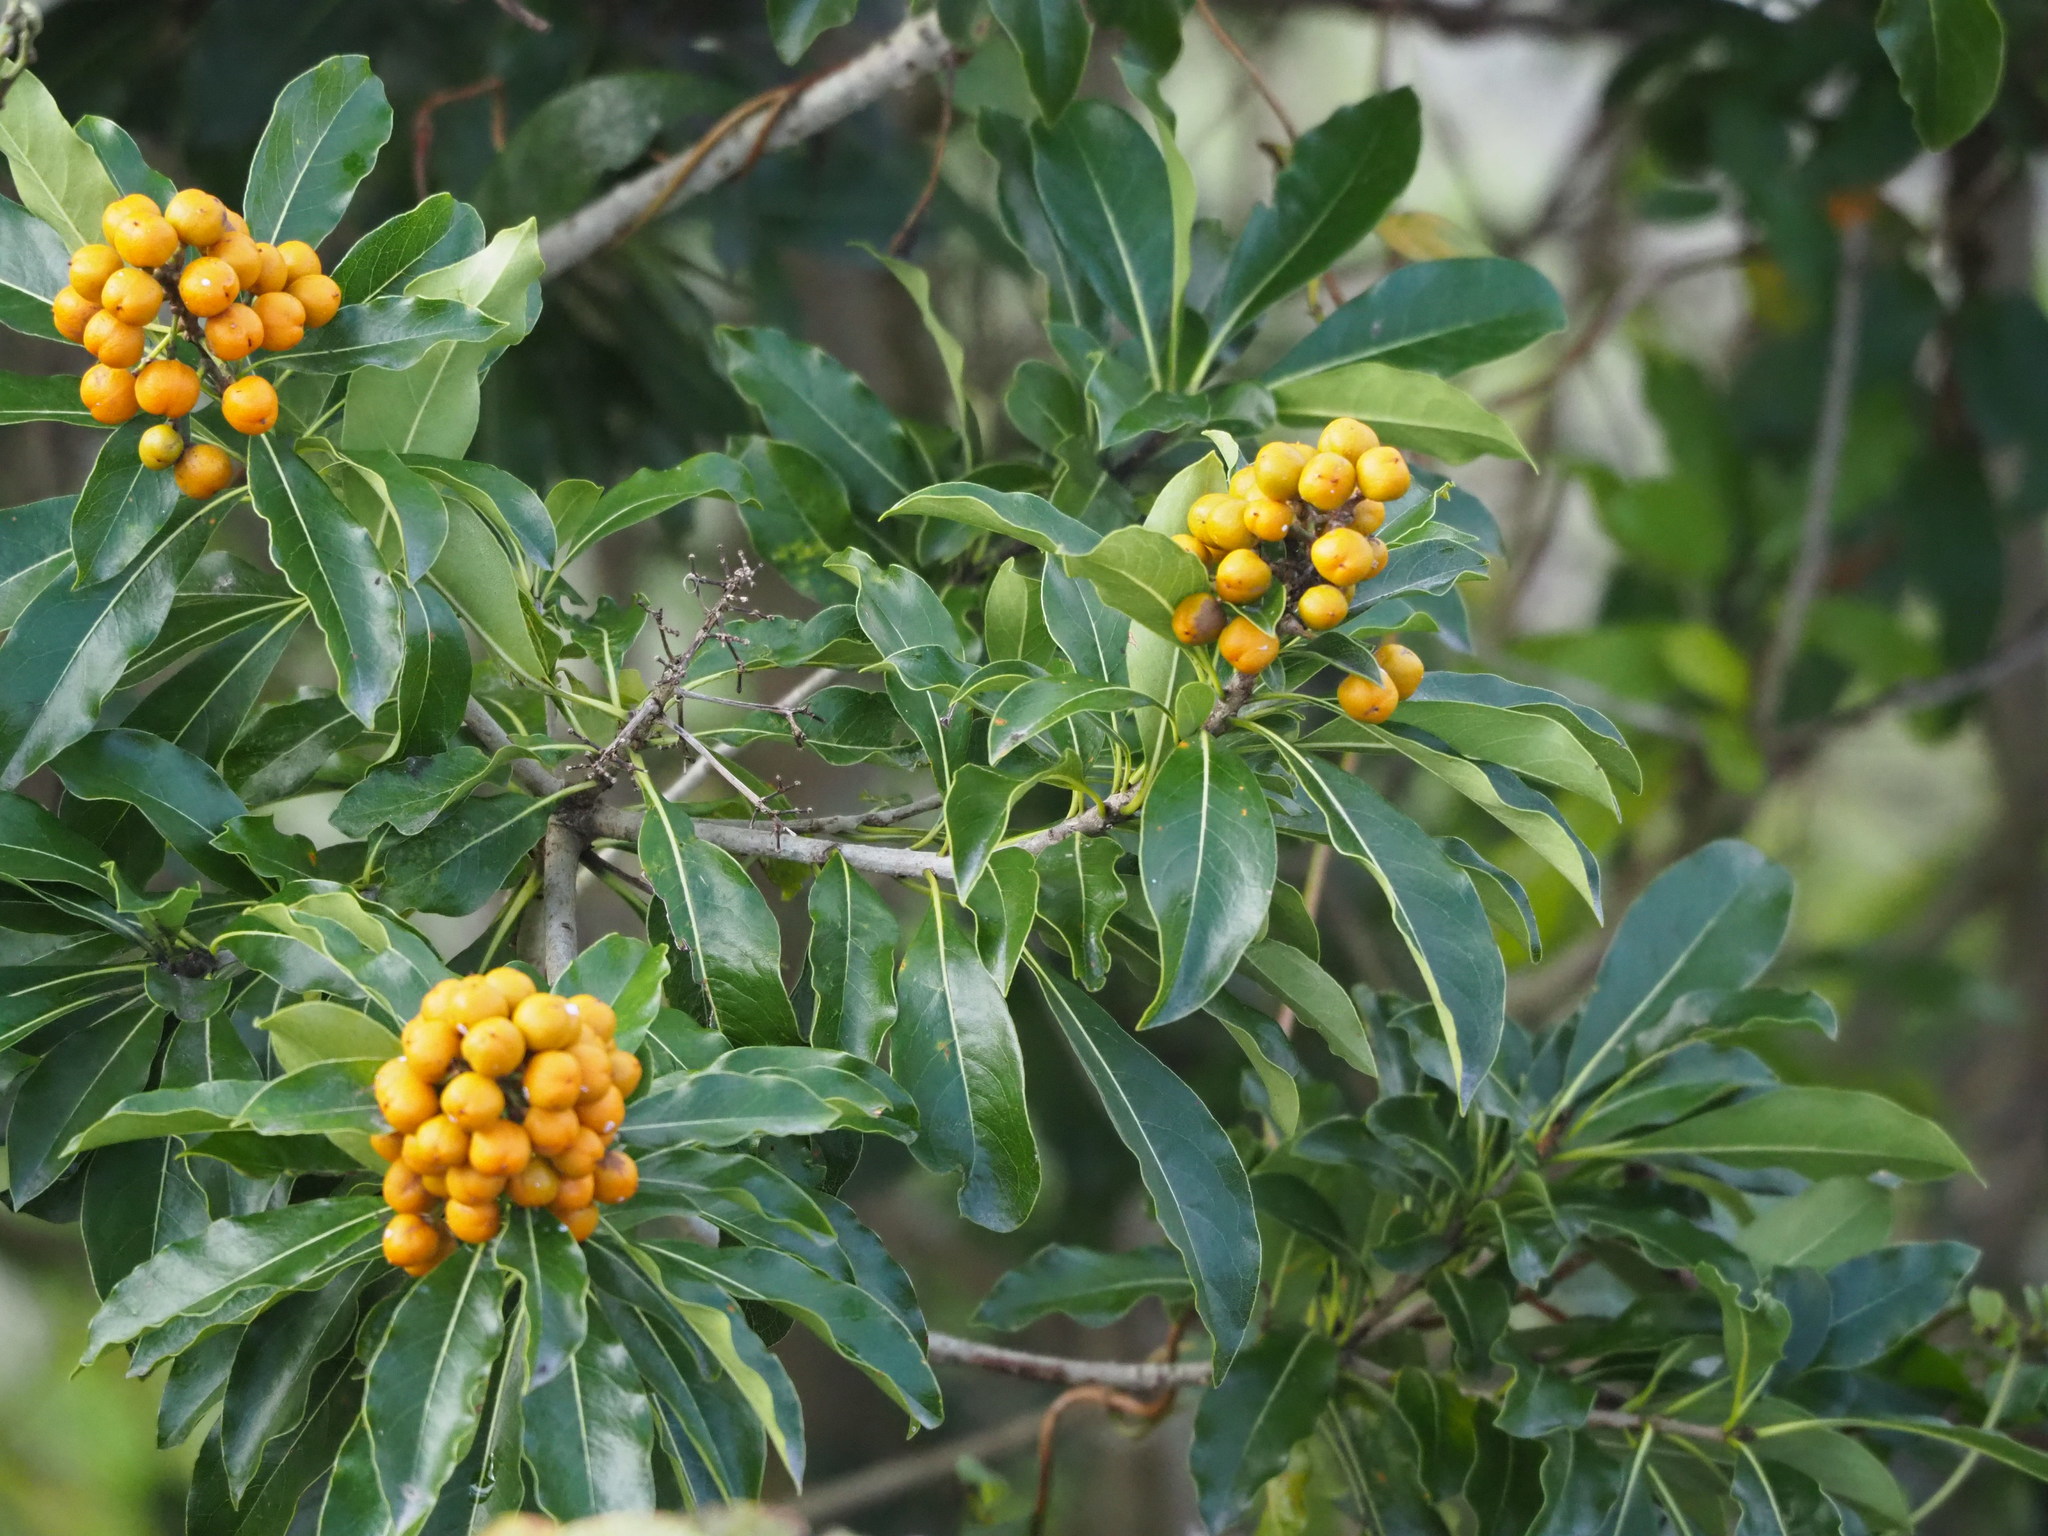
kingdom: Plantae
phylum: Tracheophyta
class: Magnoliopsida
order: Apiales
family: Pittosporaceae
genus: Pittosporum
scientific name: Pittosporum pentandrum
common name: Taiwanese cheesewood
